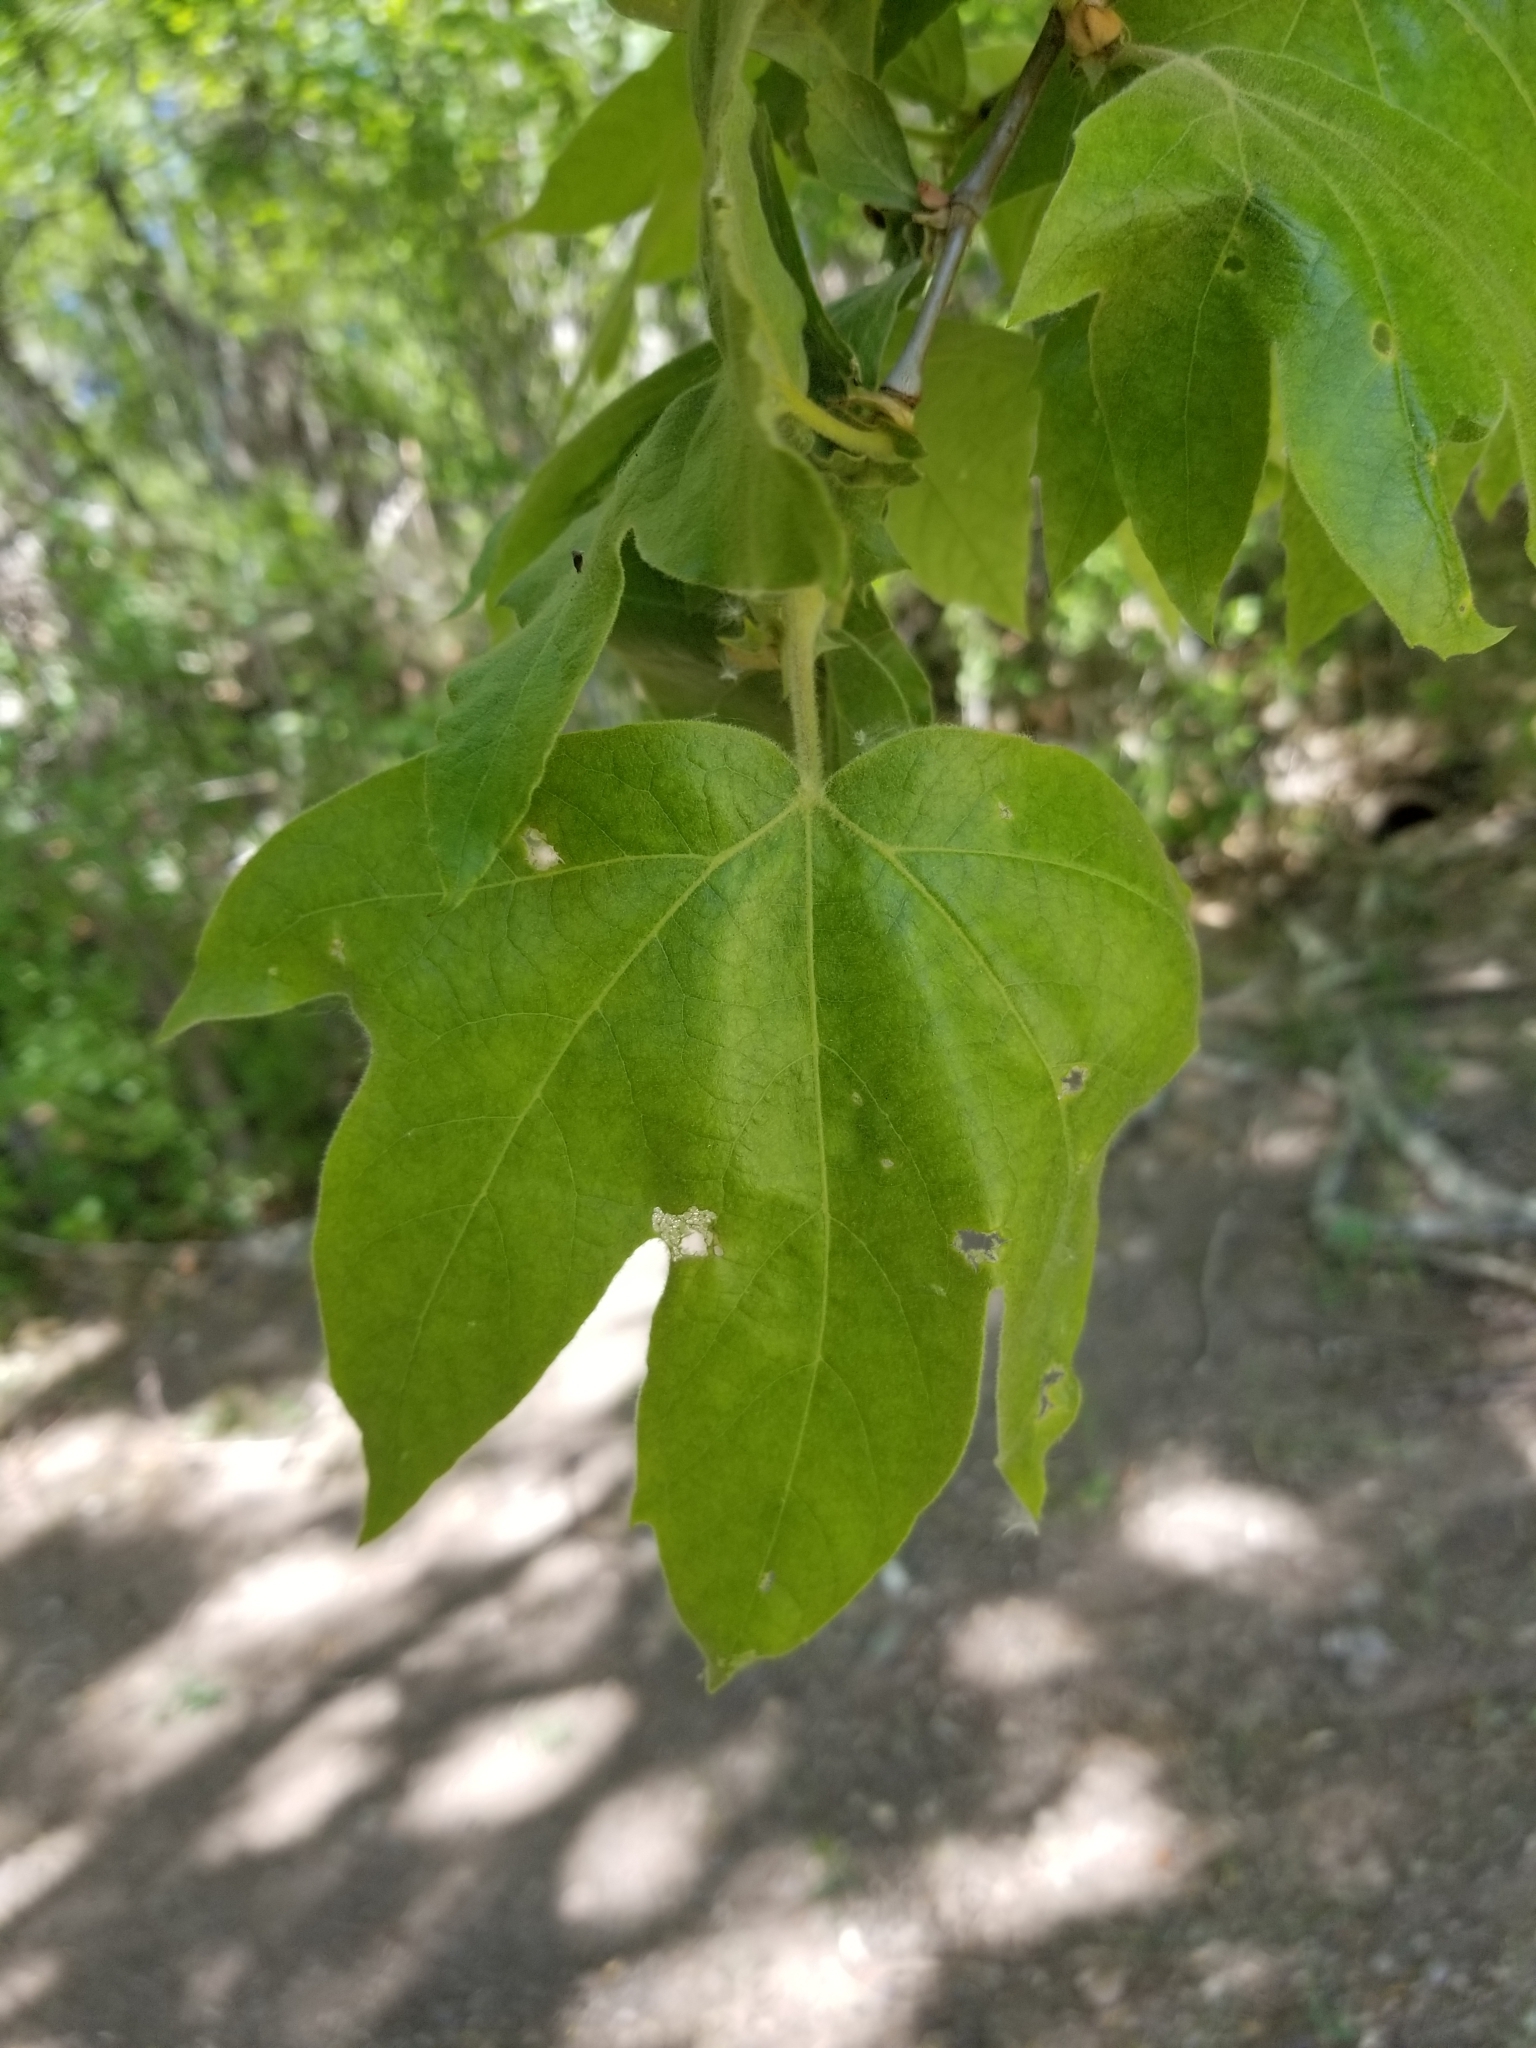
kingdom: Plantae
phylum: Tracheophyta
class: Magnoliopsida
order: Proteales
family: Platanaceae
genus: Platanus
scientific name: Platanus wrightii
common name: Arizona sycamore
